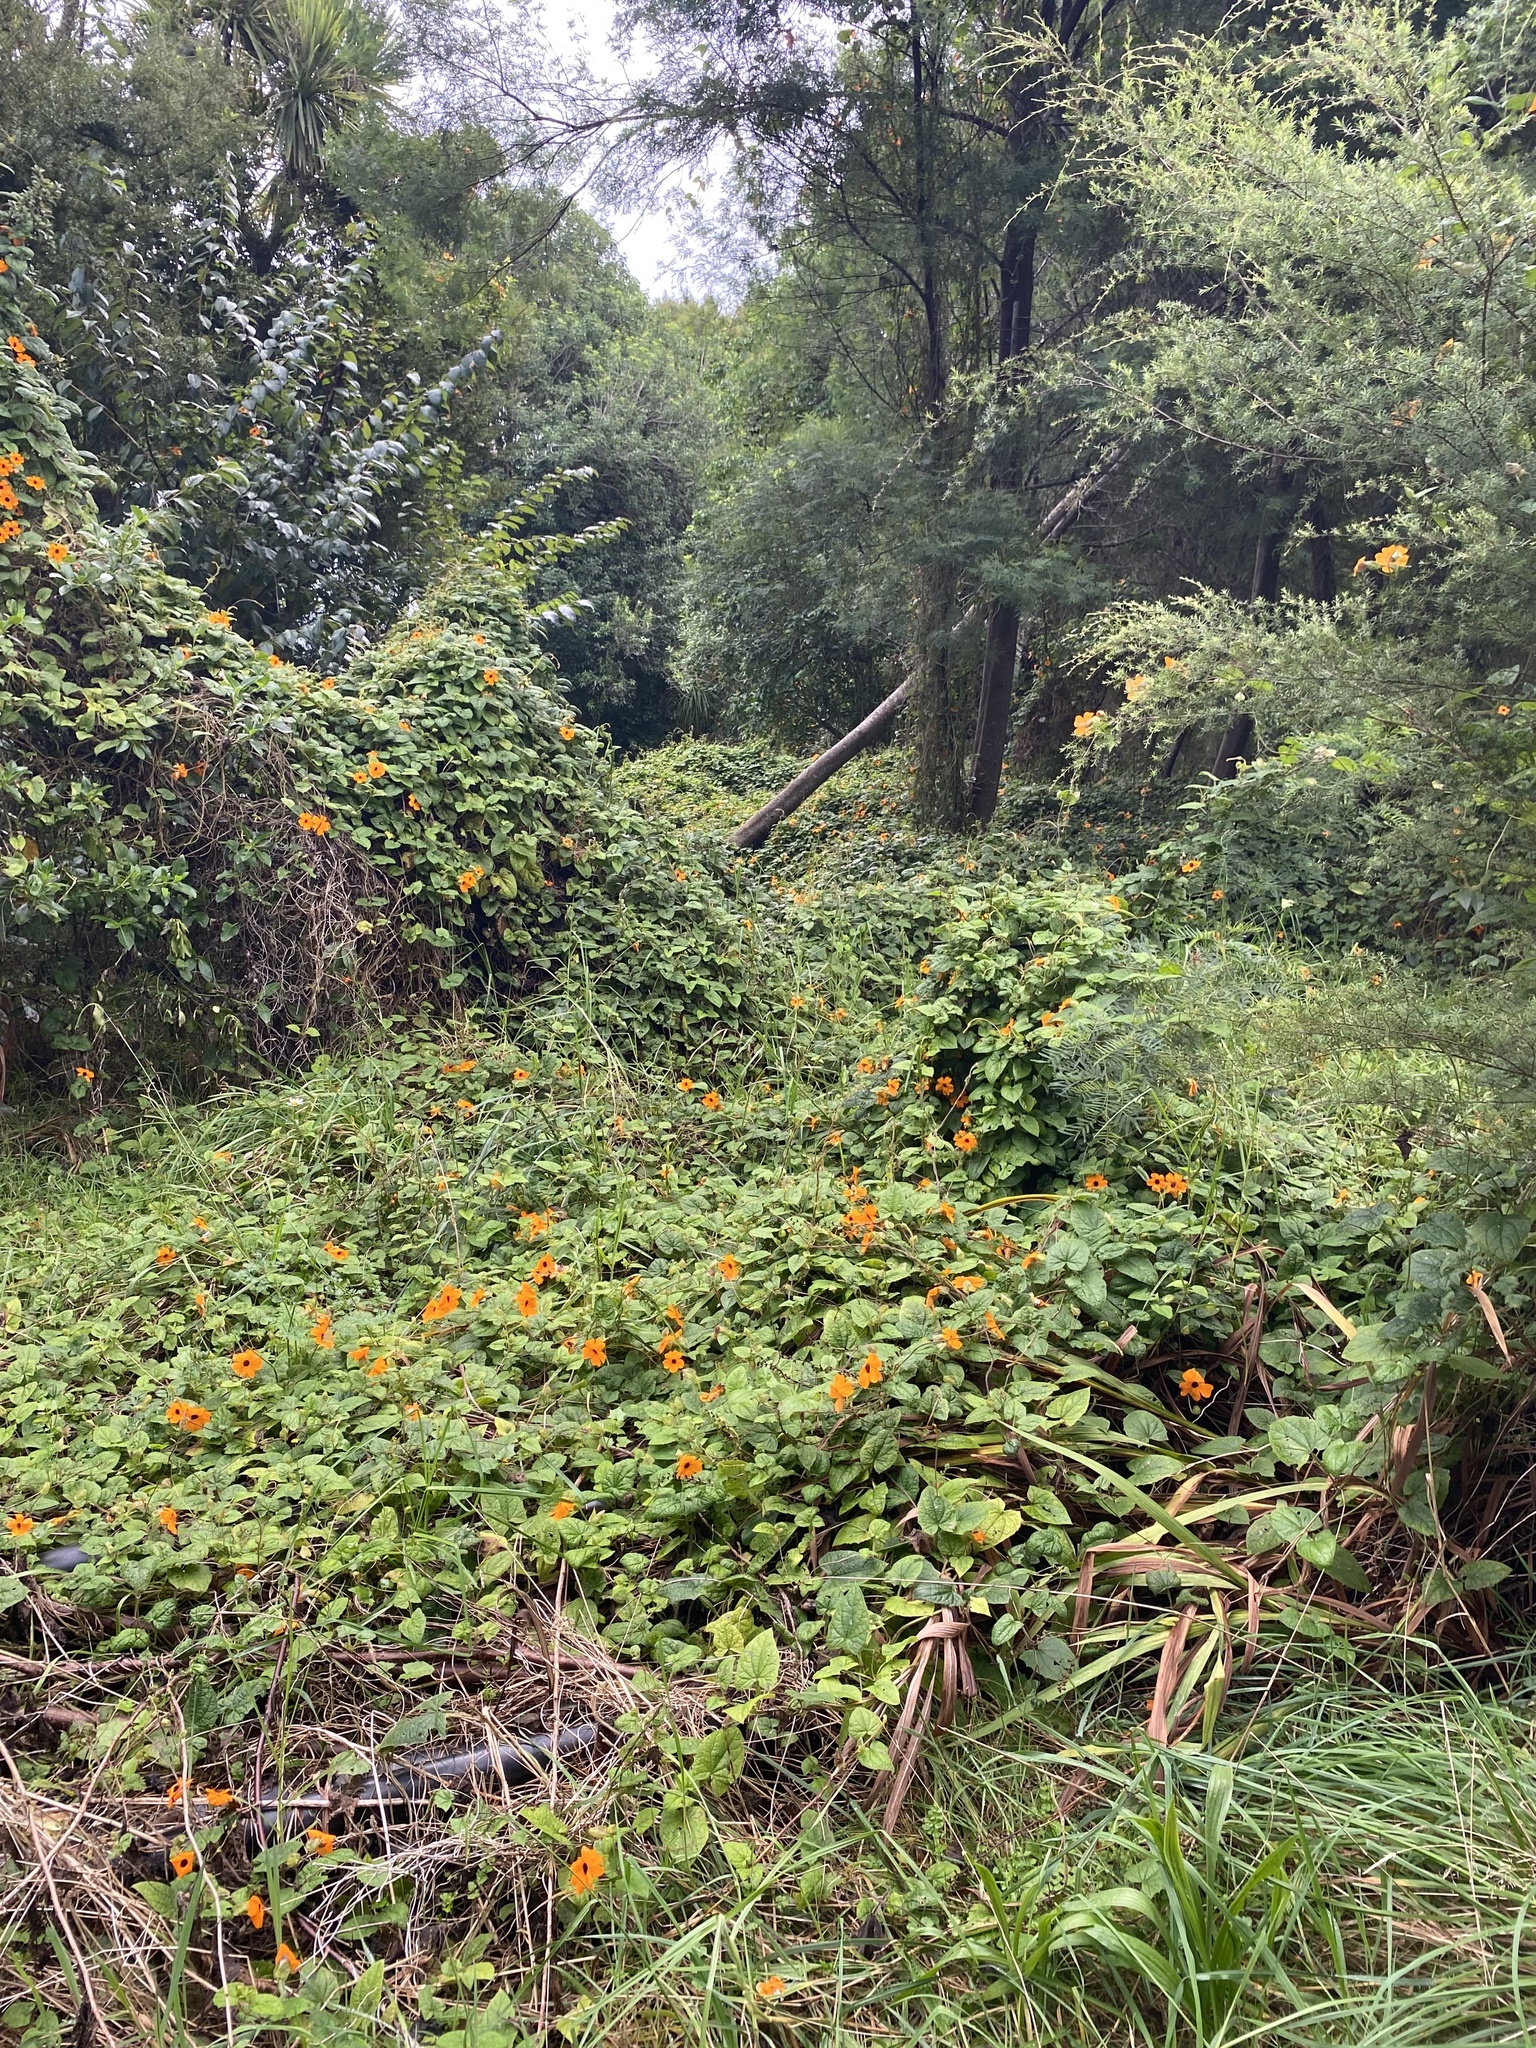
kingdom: Plantae
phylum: Tracheophyta
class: Magnoliopsida
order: Lamiales
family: Acanthaceae
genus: Thunbergia
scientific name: Thunbergia alata
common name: Blackeyed susan vine
